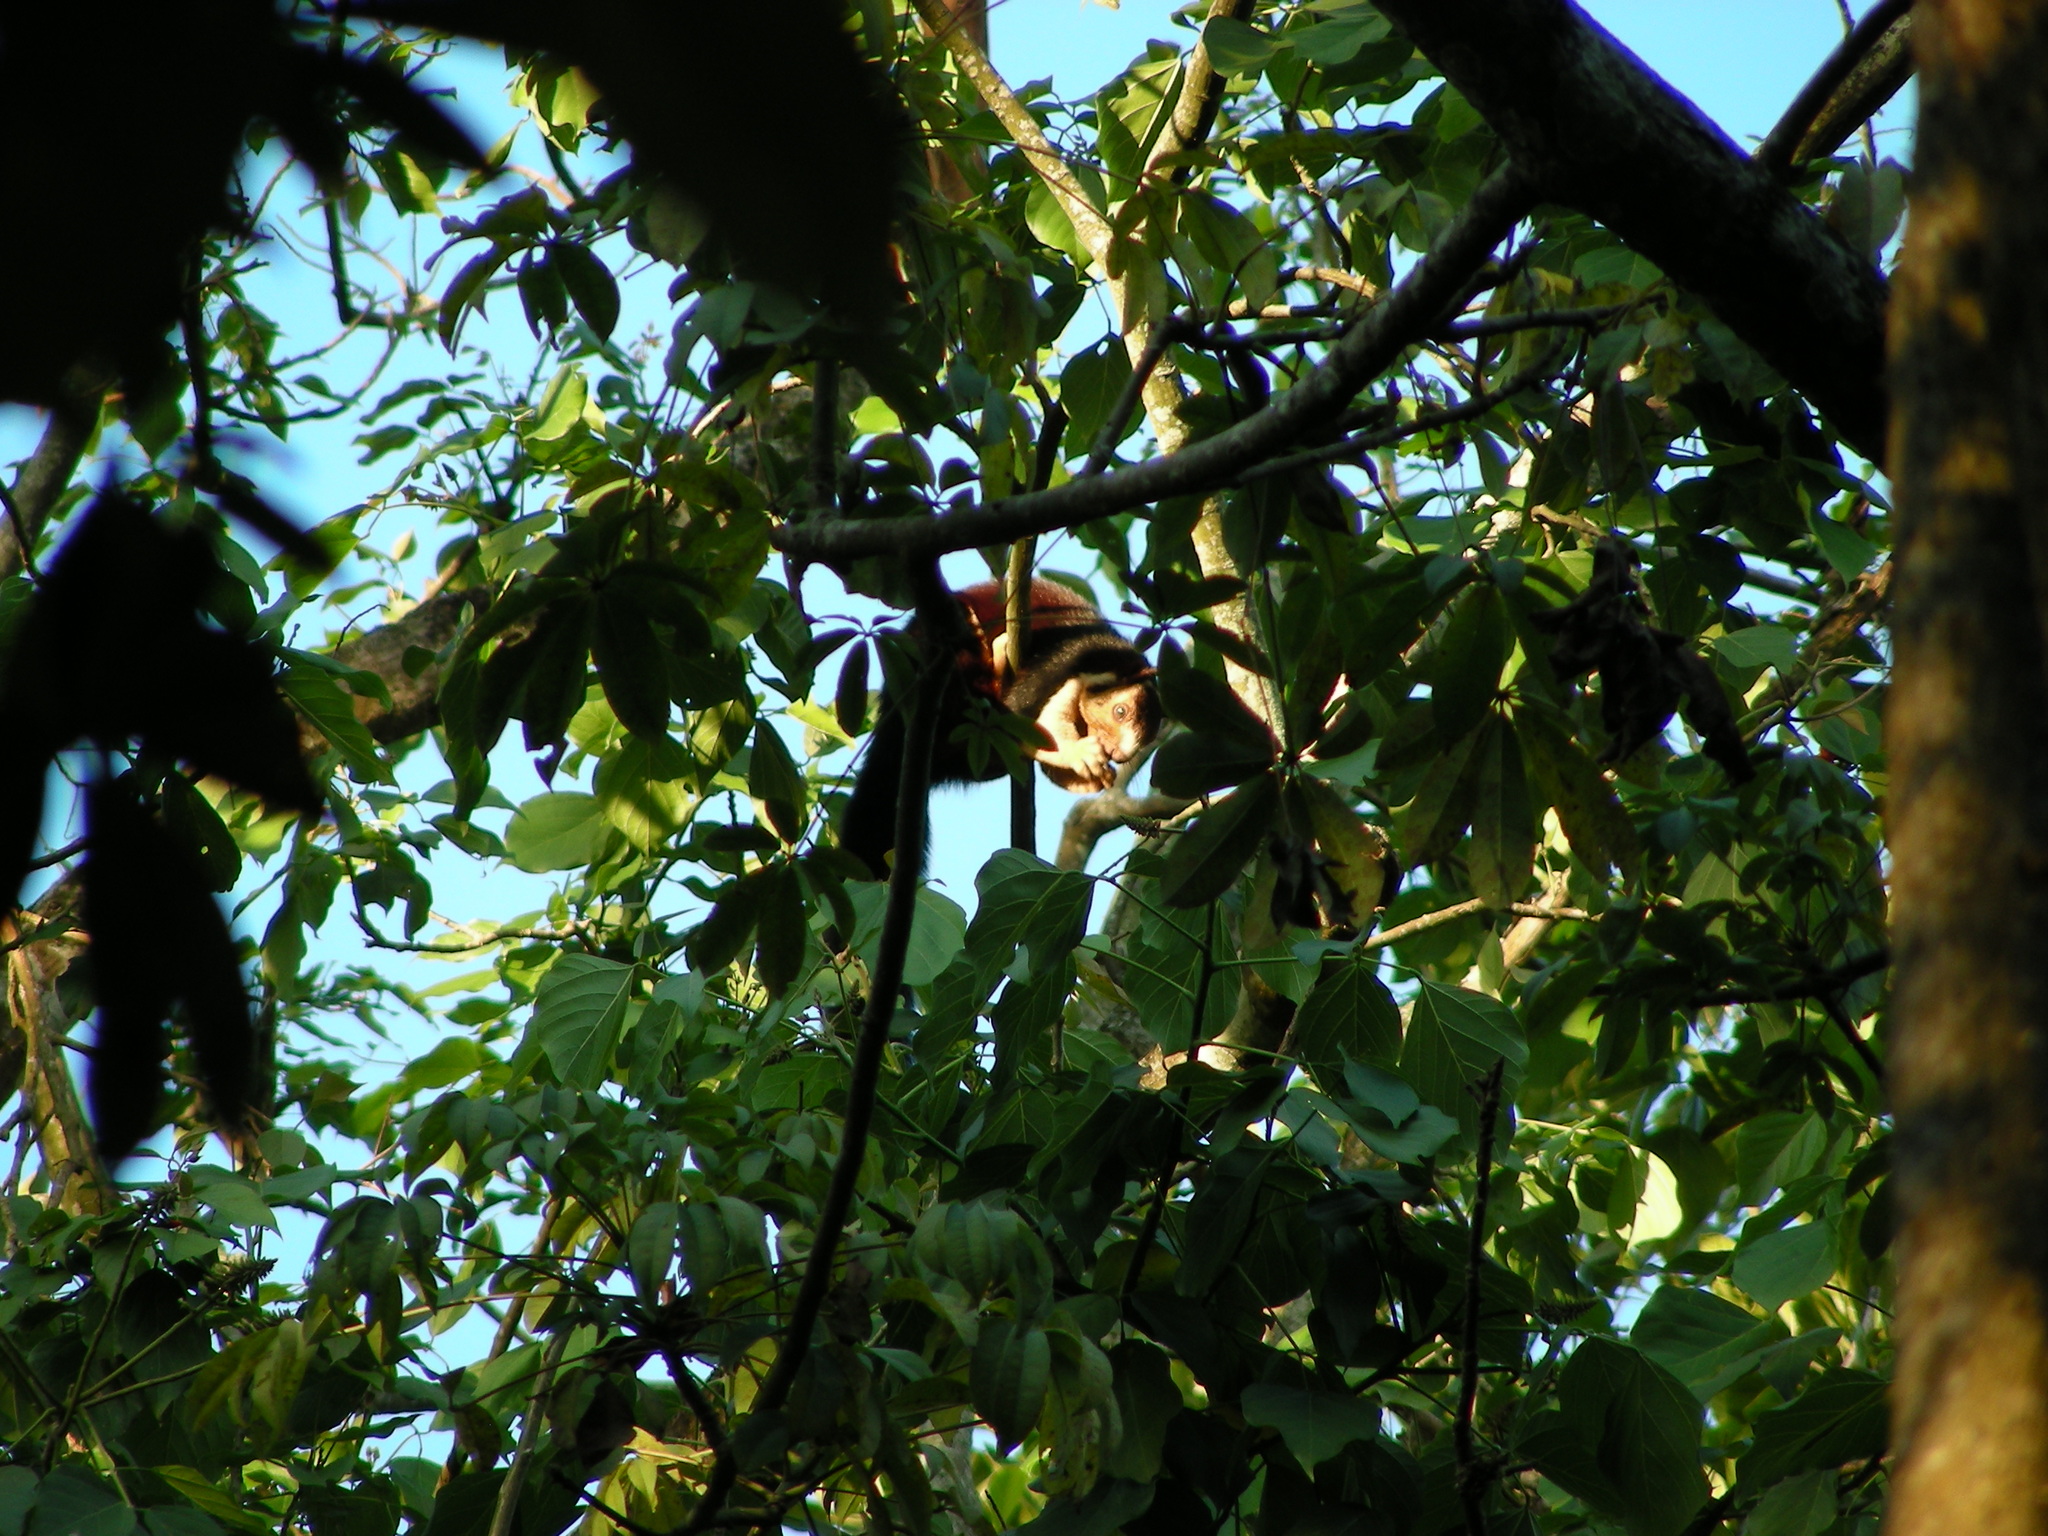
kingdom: Animalia
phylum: Chordata
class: Mammalia
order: Rodentia
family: Sciuridae
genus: Ratufa
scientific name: Ratufa indica
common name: Indian giant squirrel
